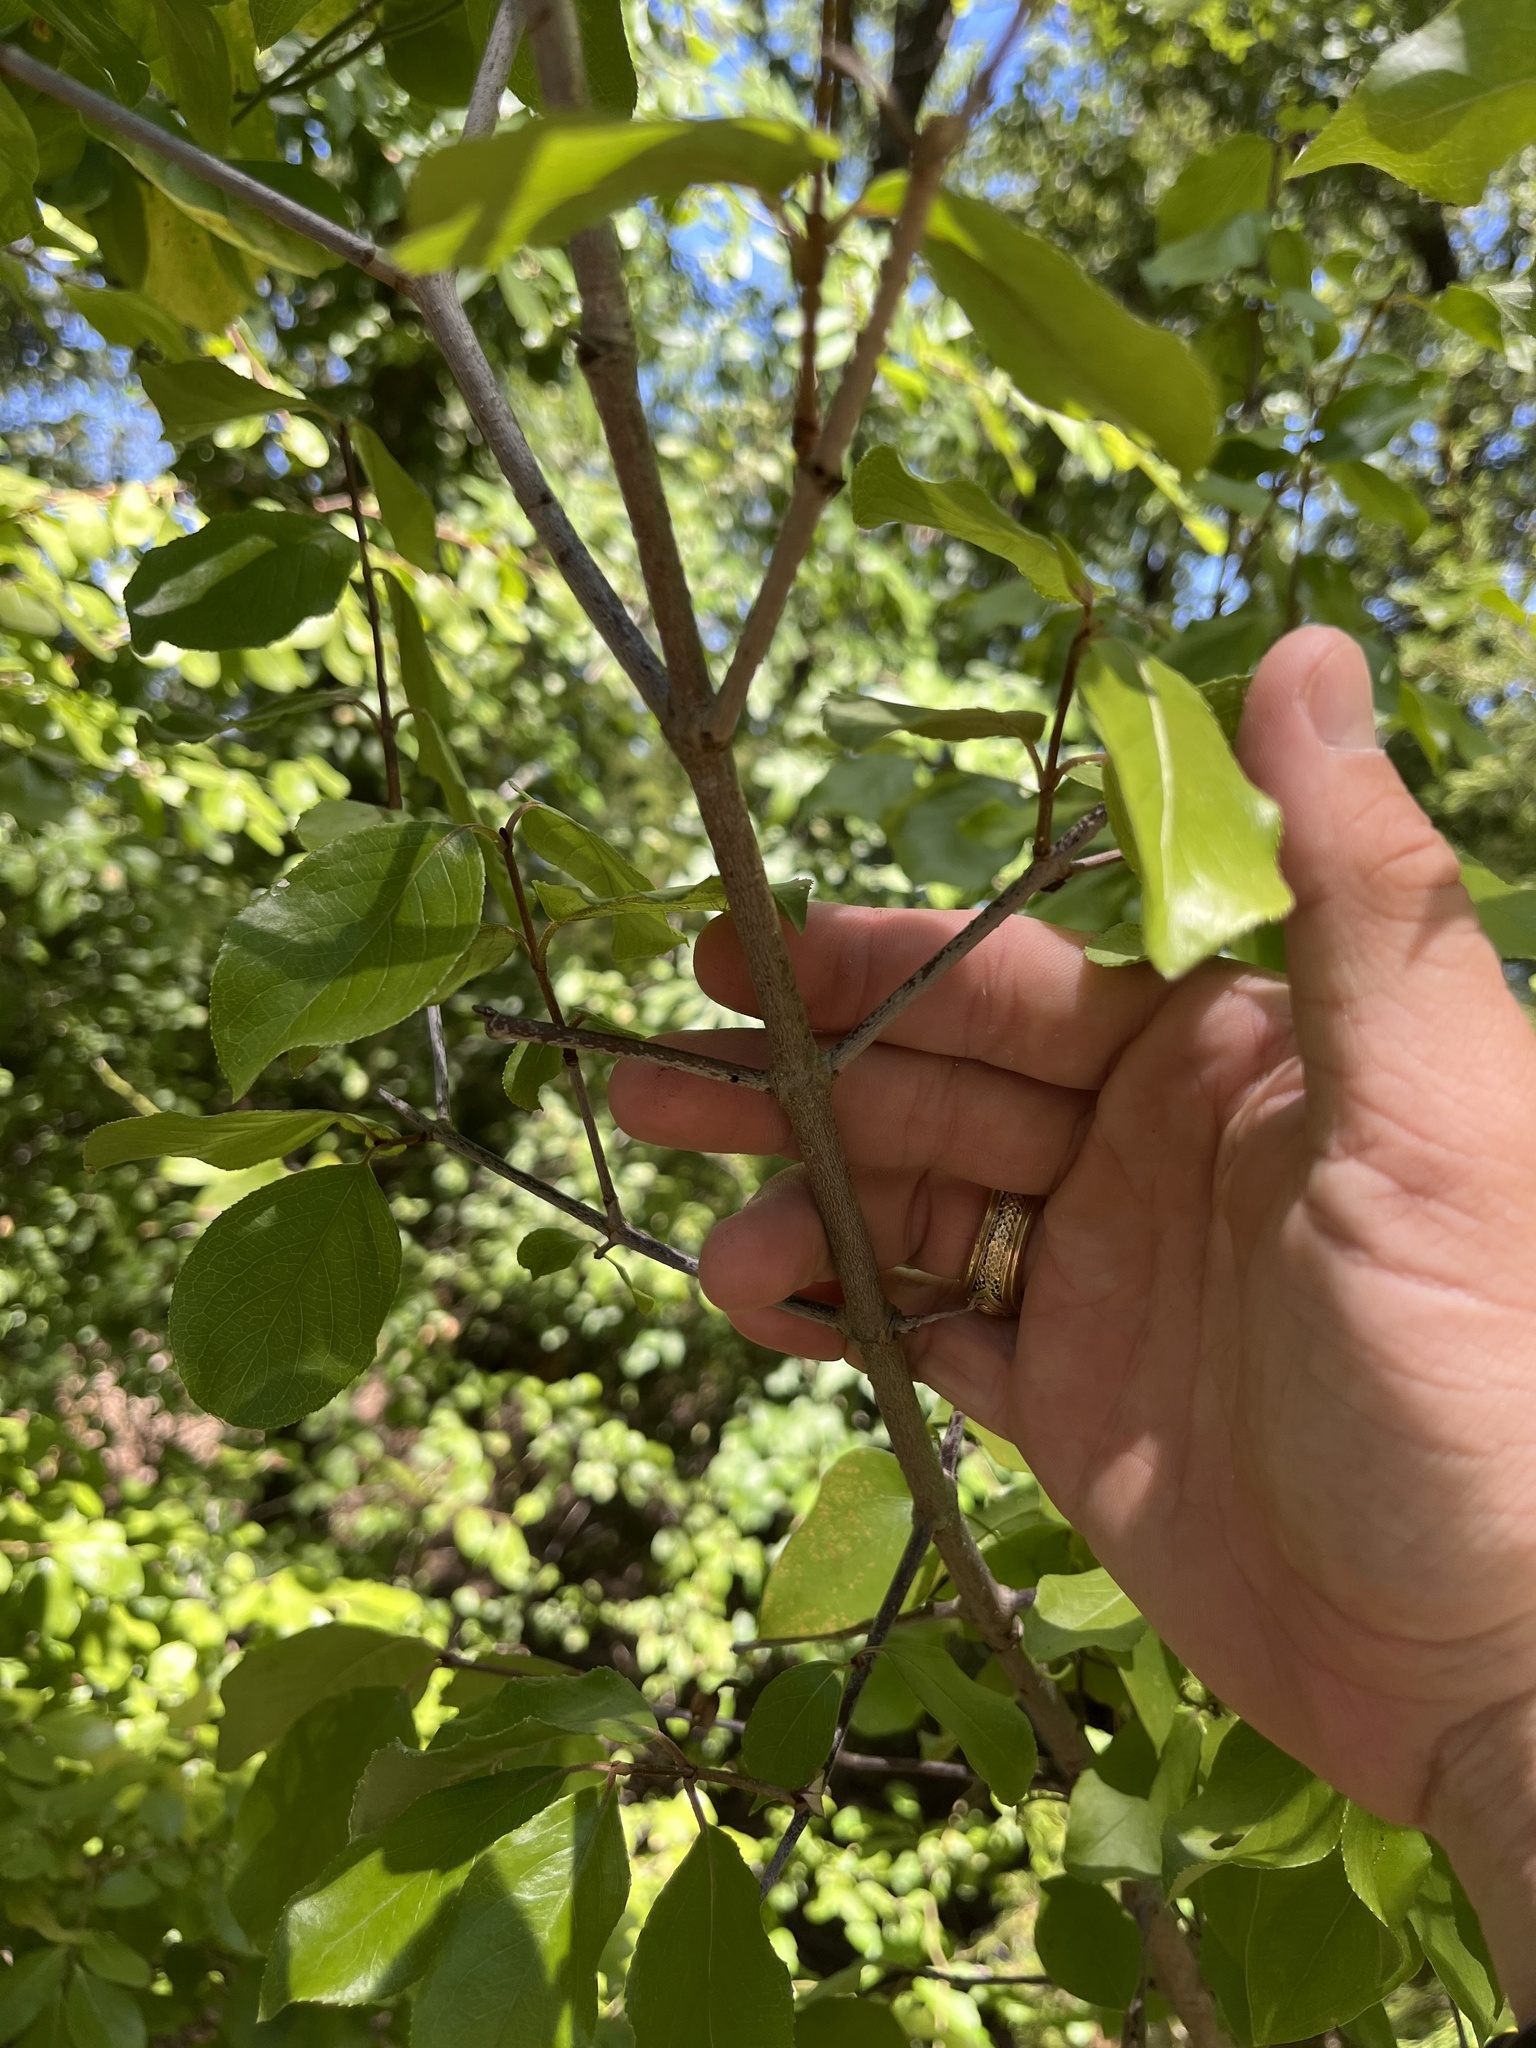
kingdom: Plantae
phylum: Tracheophyta
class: Magnoliopsida
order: Dipsacales
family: Viburnaceae
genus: Viburnum
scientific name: Viburnum rufidulum
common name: Blue haw
